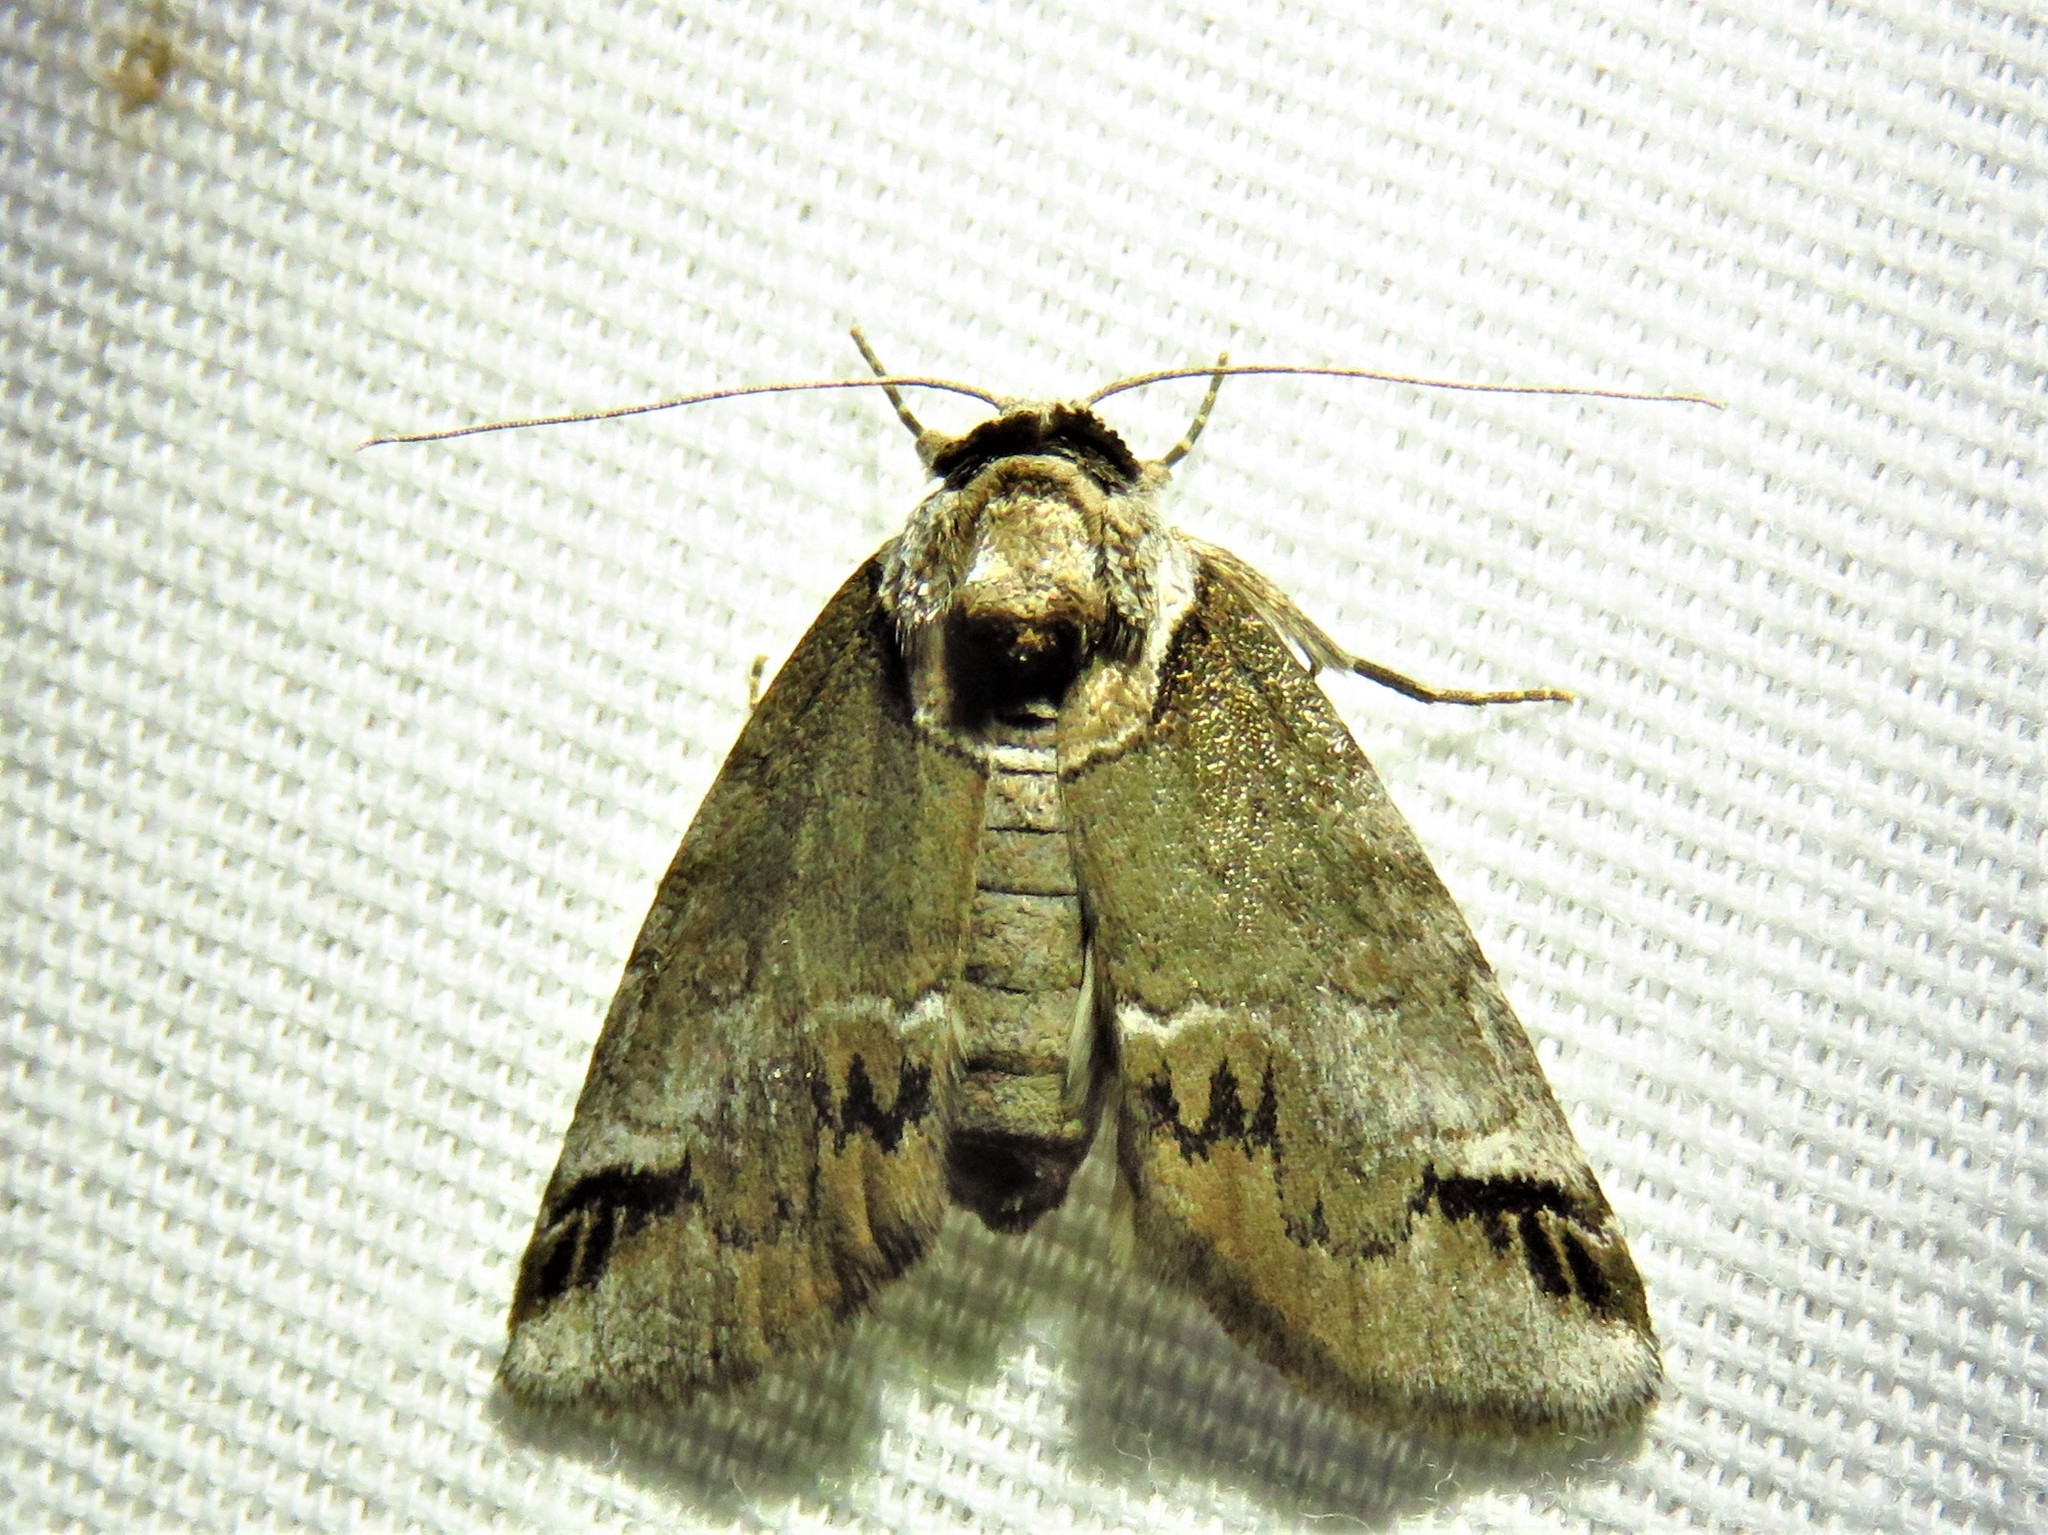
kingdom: Animalia
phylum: Arthropoda
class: Insecta
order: Lepidoptera
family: Nolidae
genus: Baileya
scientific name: Baileya australis
